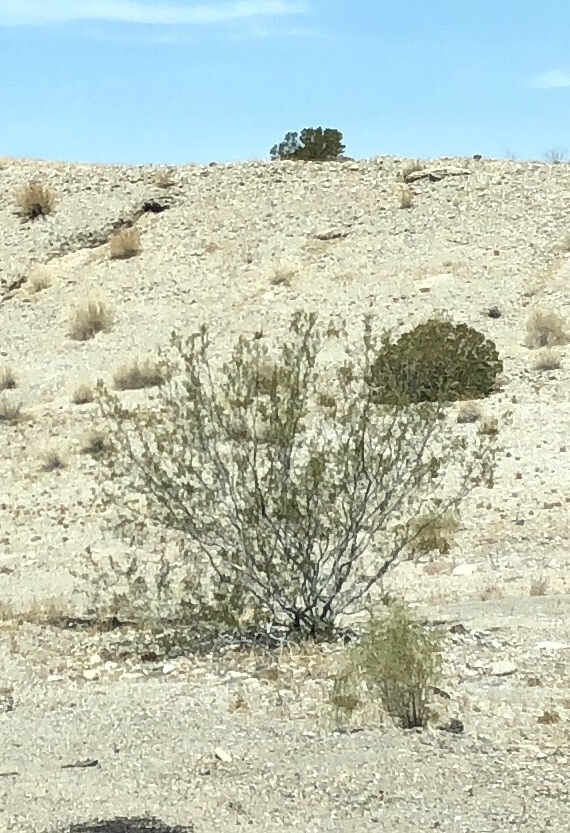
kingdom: Plantae
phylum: Tracheophyta
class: Magnoliopsida
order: Zygophyllales
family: Zygophyllaceae
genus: Larrea
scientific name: Larrea tridentata
